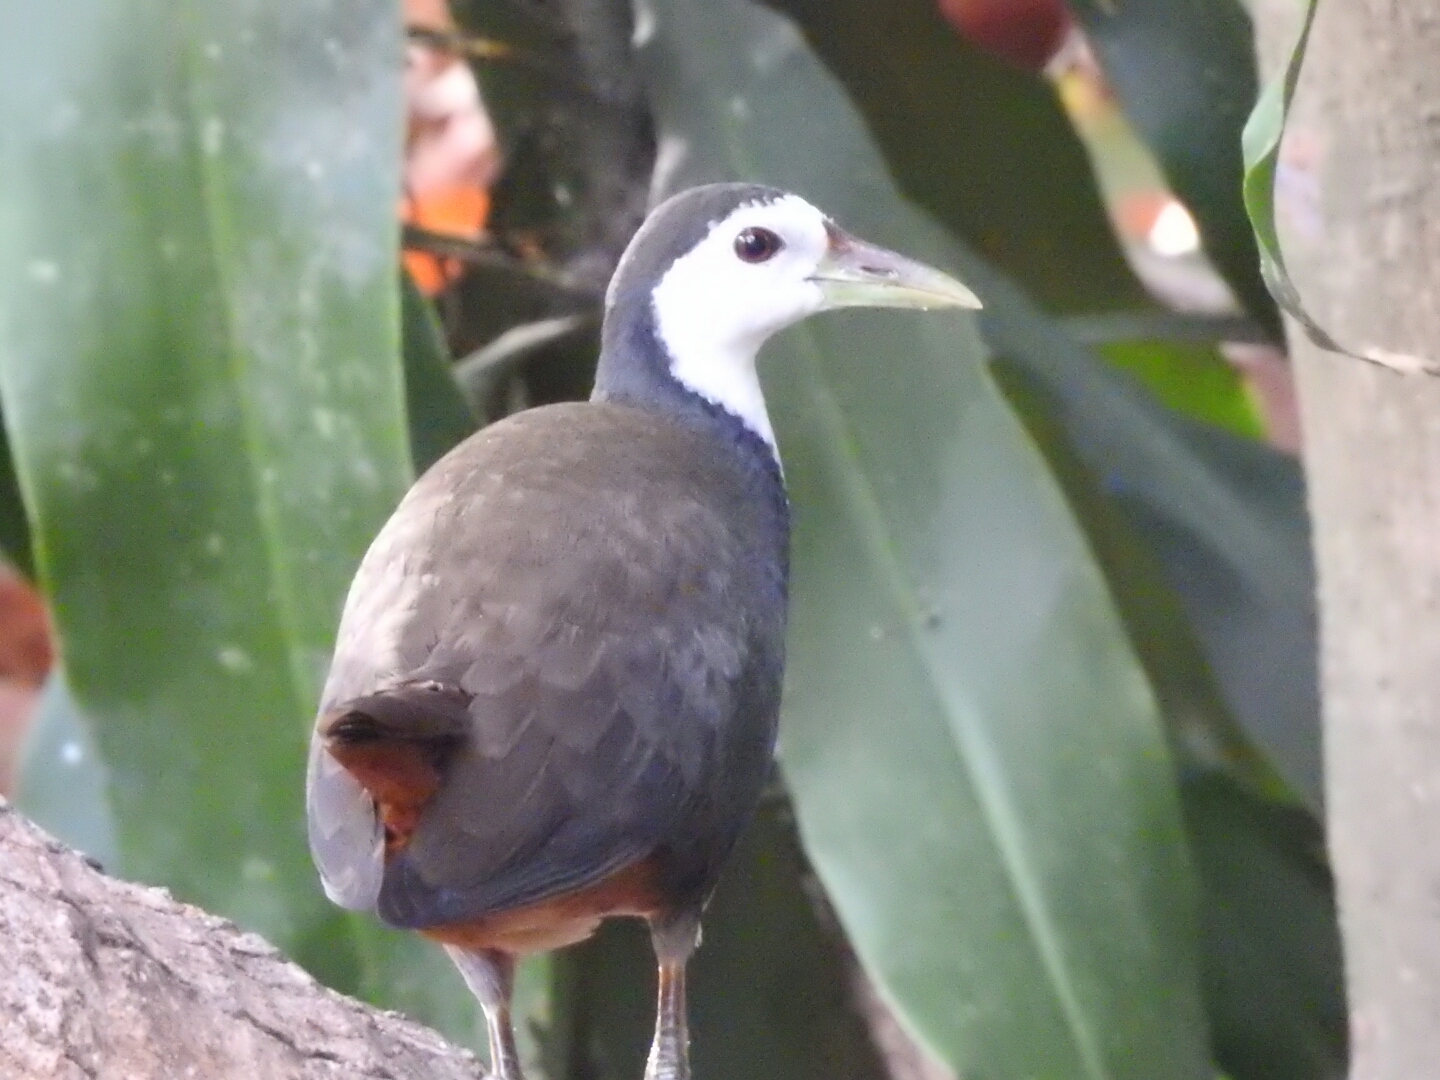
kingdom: Animalia
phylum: Chordata
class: Aves
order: Gruiformes
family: Rallidae
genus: Amaurornis
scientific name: Amaurornis phoenicurus
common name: White-breasted waterhen
